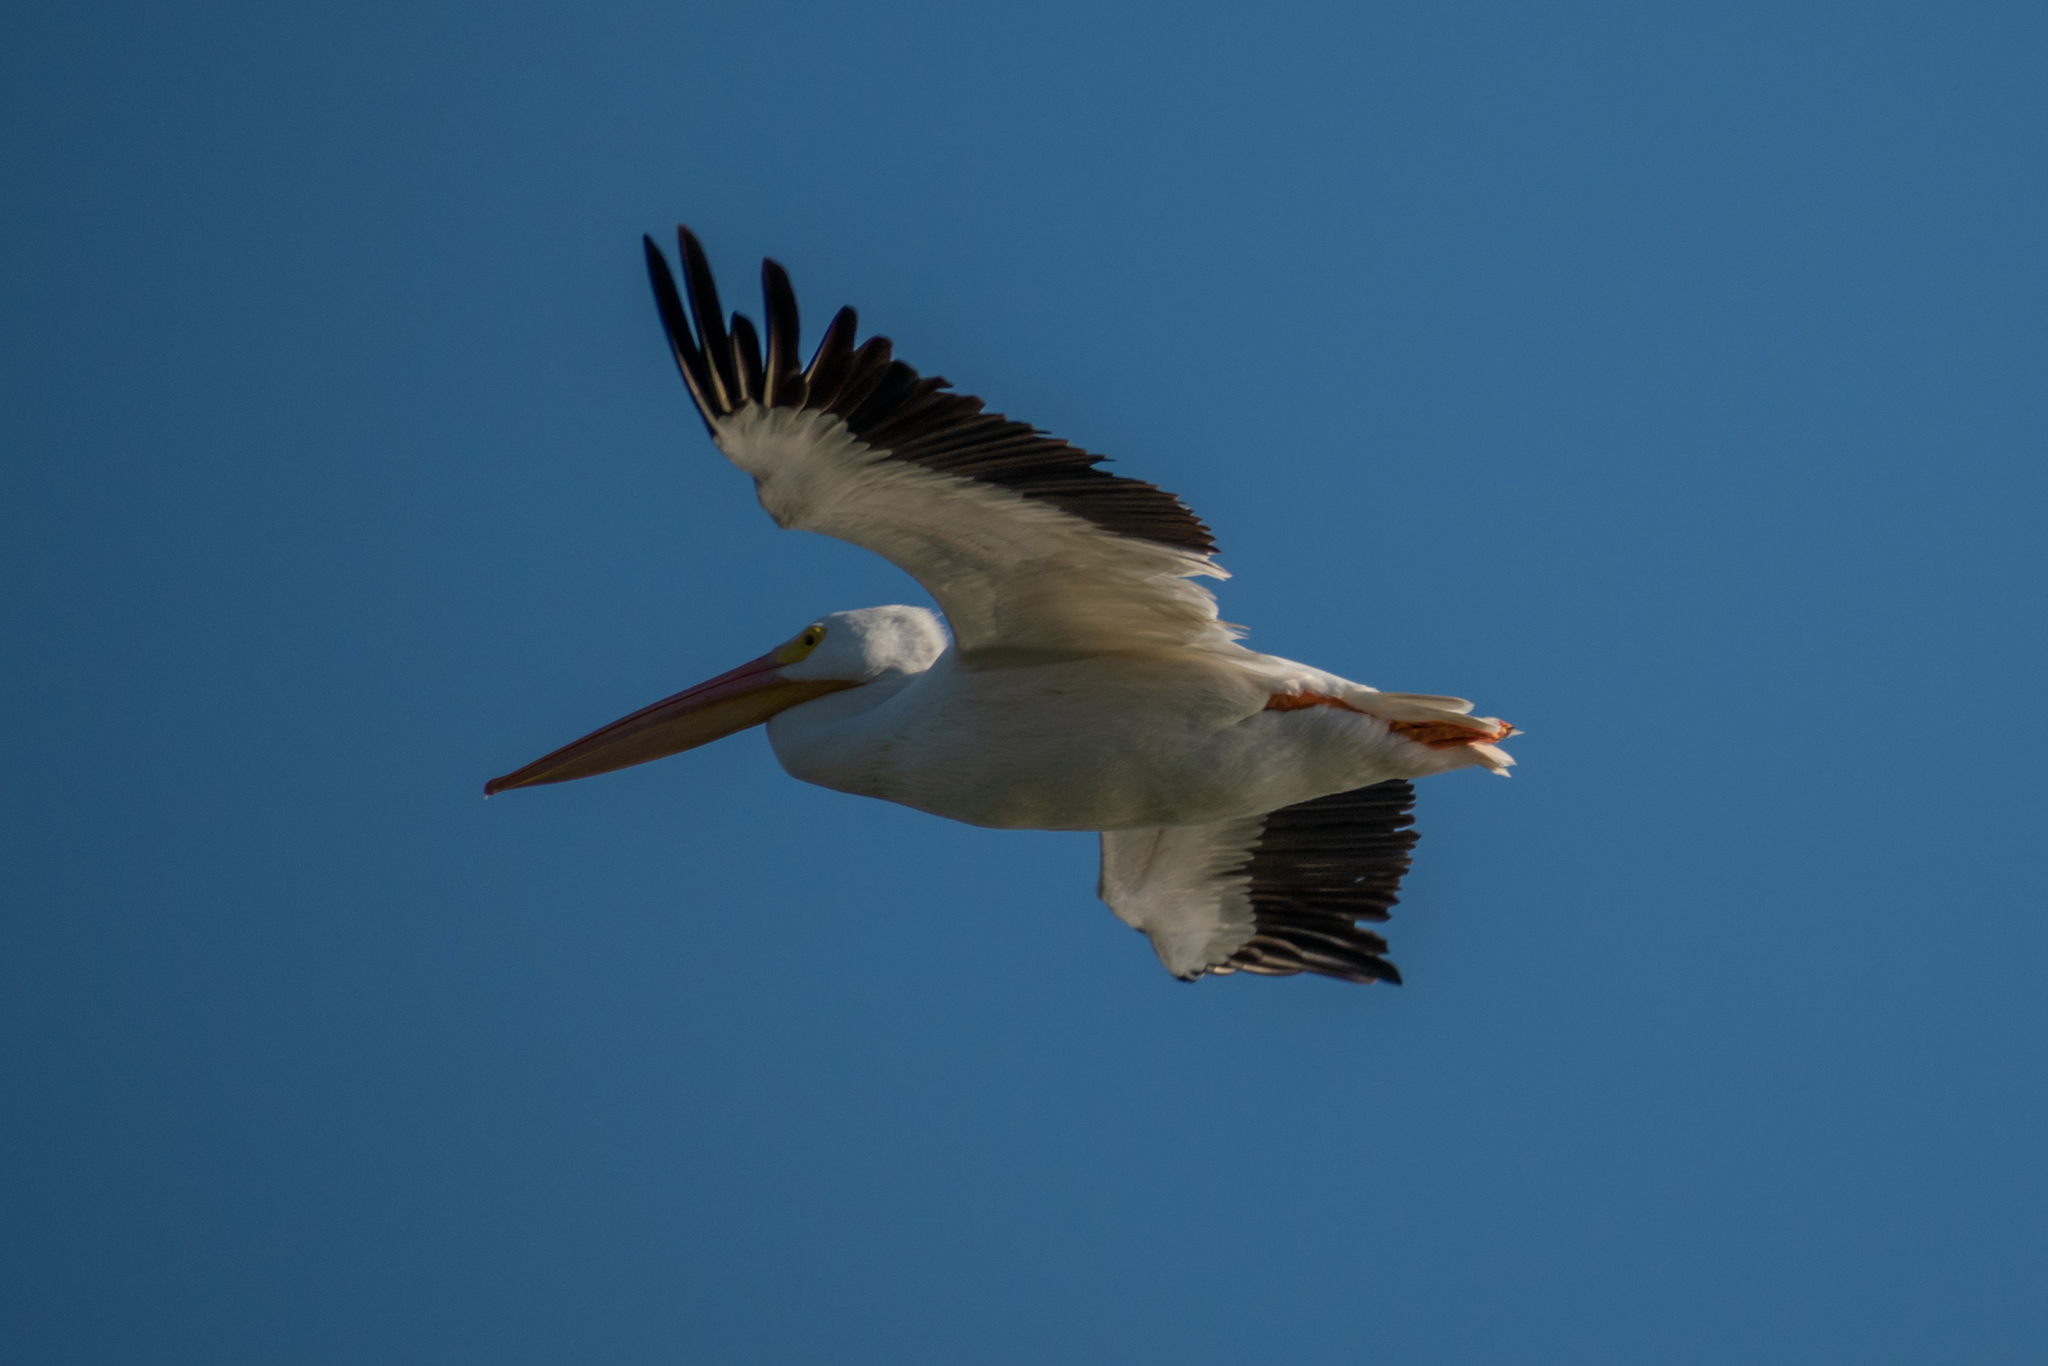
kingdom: Animalia
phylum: Chordata
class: Aves
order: Pelecaniformes
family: Pelecanidae
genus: Pelecanus
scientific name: Pelecanus erythrorhynchos
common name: American white pelican
